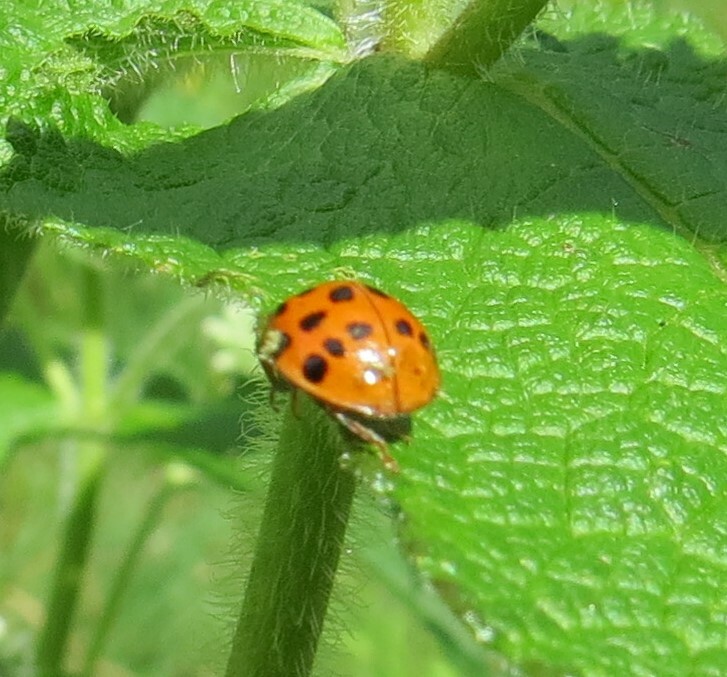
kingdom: Fungi
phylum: Ascomycota
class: Laboulbeniomycetes
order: Laboulbeniales
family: Laboulbeniaceae
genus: Hesperomyces
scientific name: Hesperomyces harmoniae
